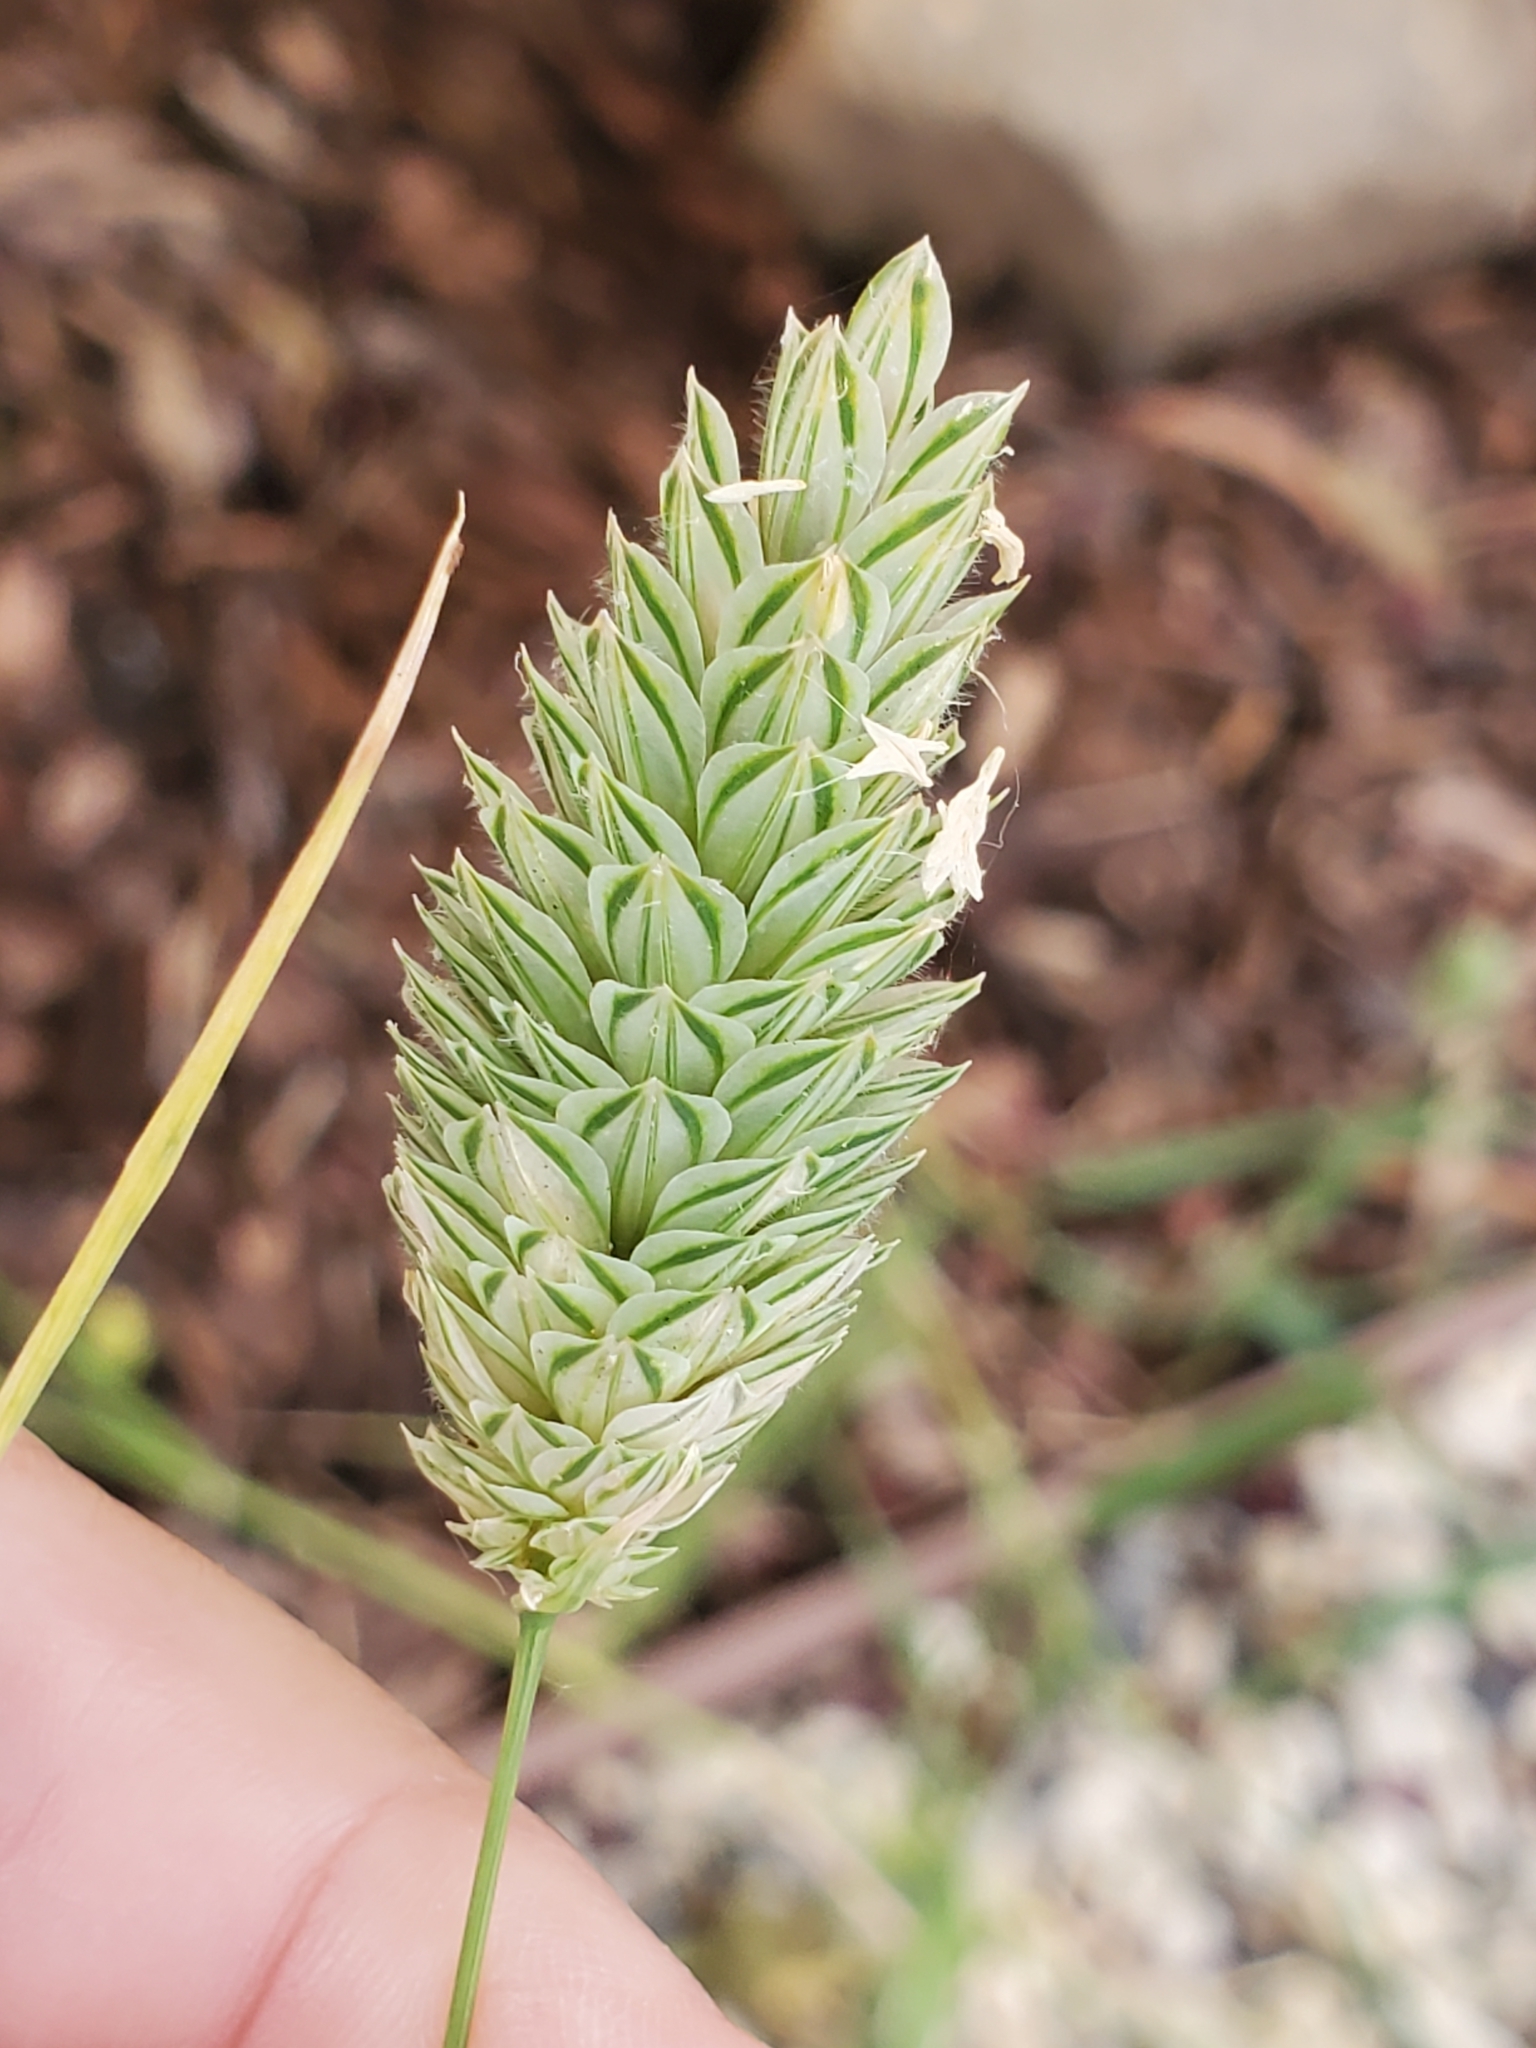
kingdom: Plantae
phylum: Tracheophyta
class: Liliopsida
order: Poales
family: Poaceae
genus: Phalaris
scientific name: Phalaris canariensis
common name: Annual canarygrass
